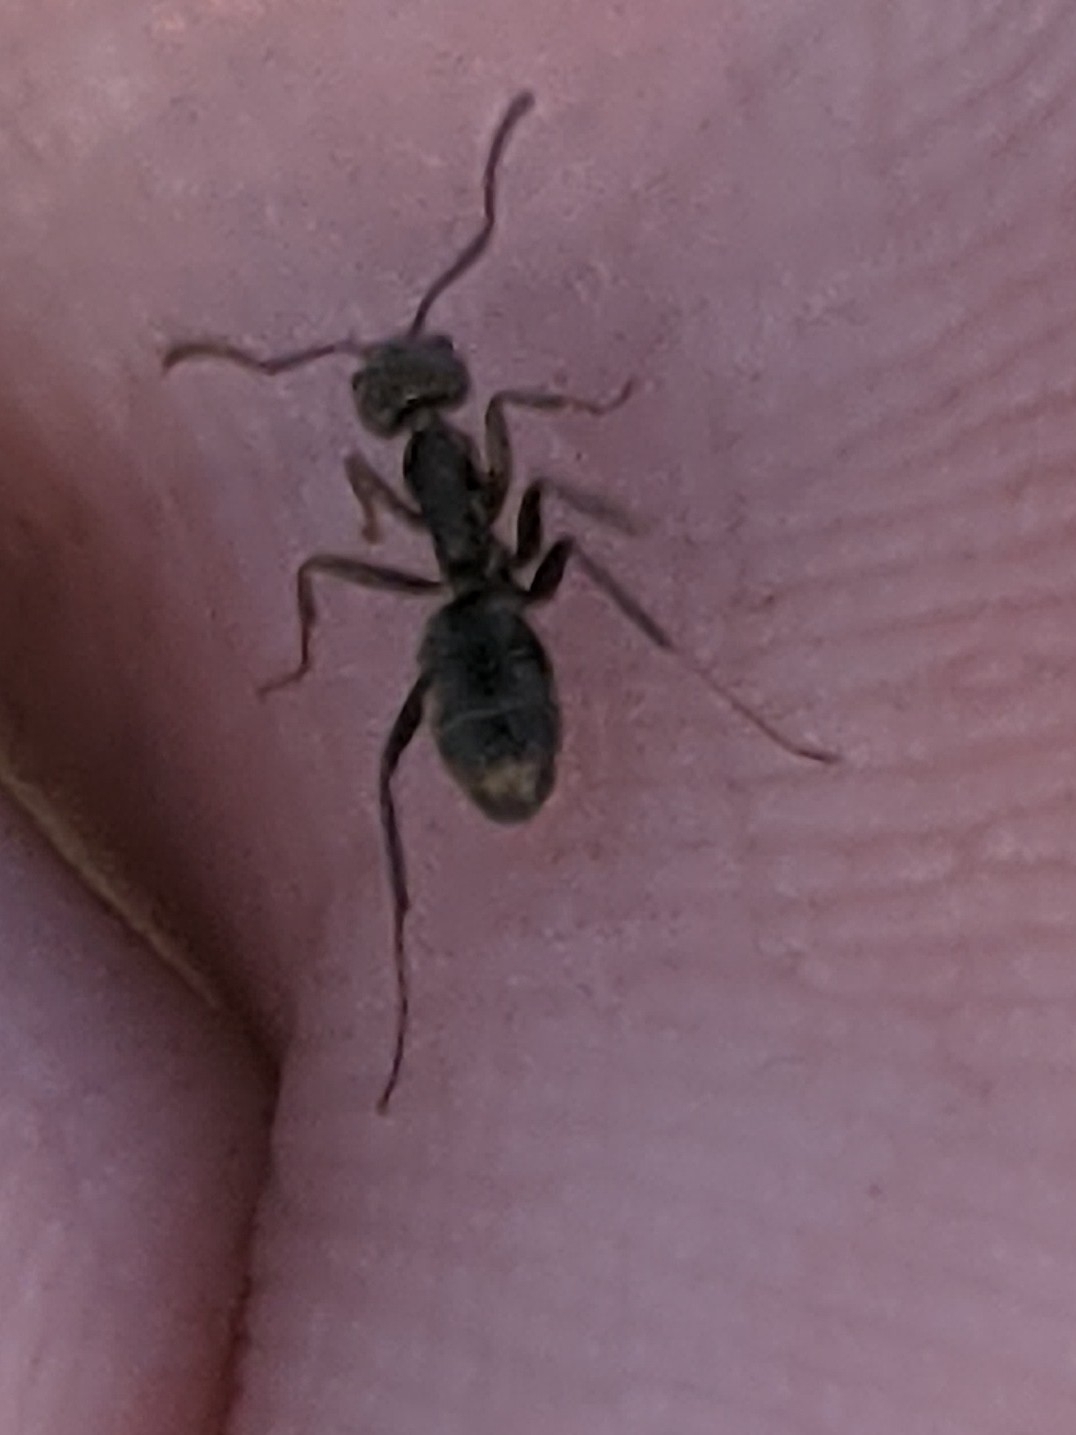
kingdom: Animalia
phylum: Arthropoda
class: Insecta
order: Hymenoptera
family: Formicidae
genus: Liometopum
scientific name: Liometopum apiculatum
